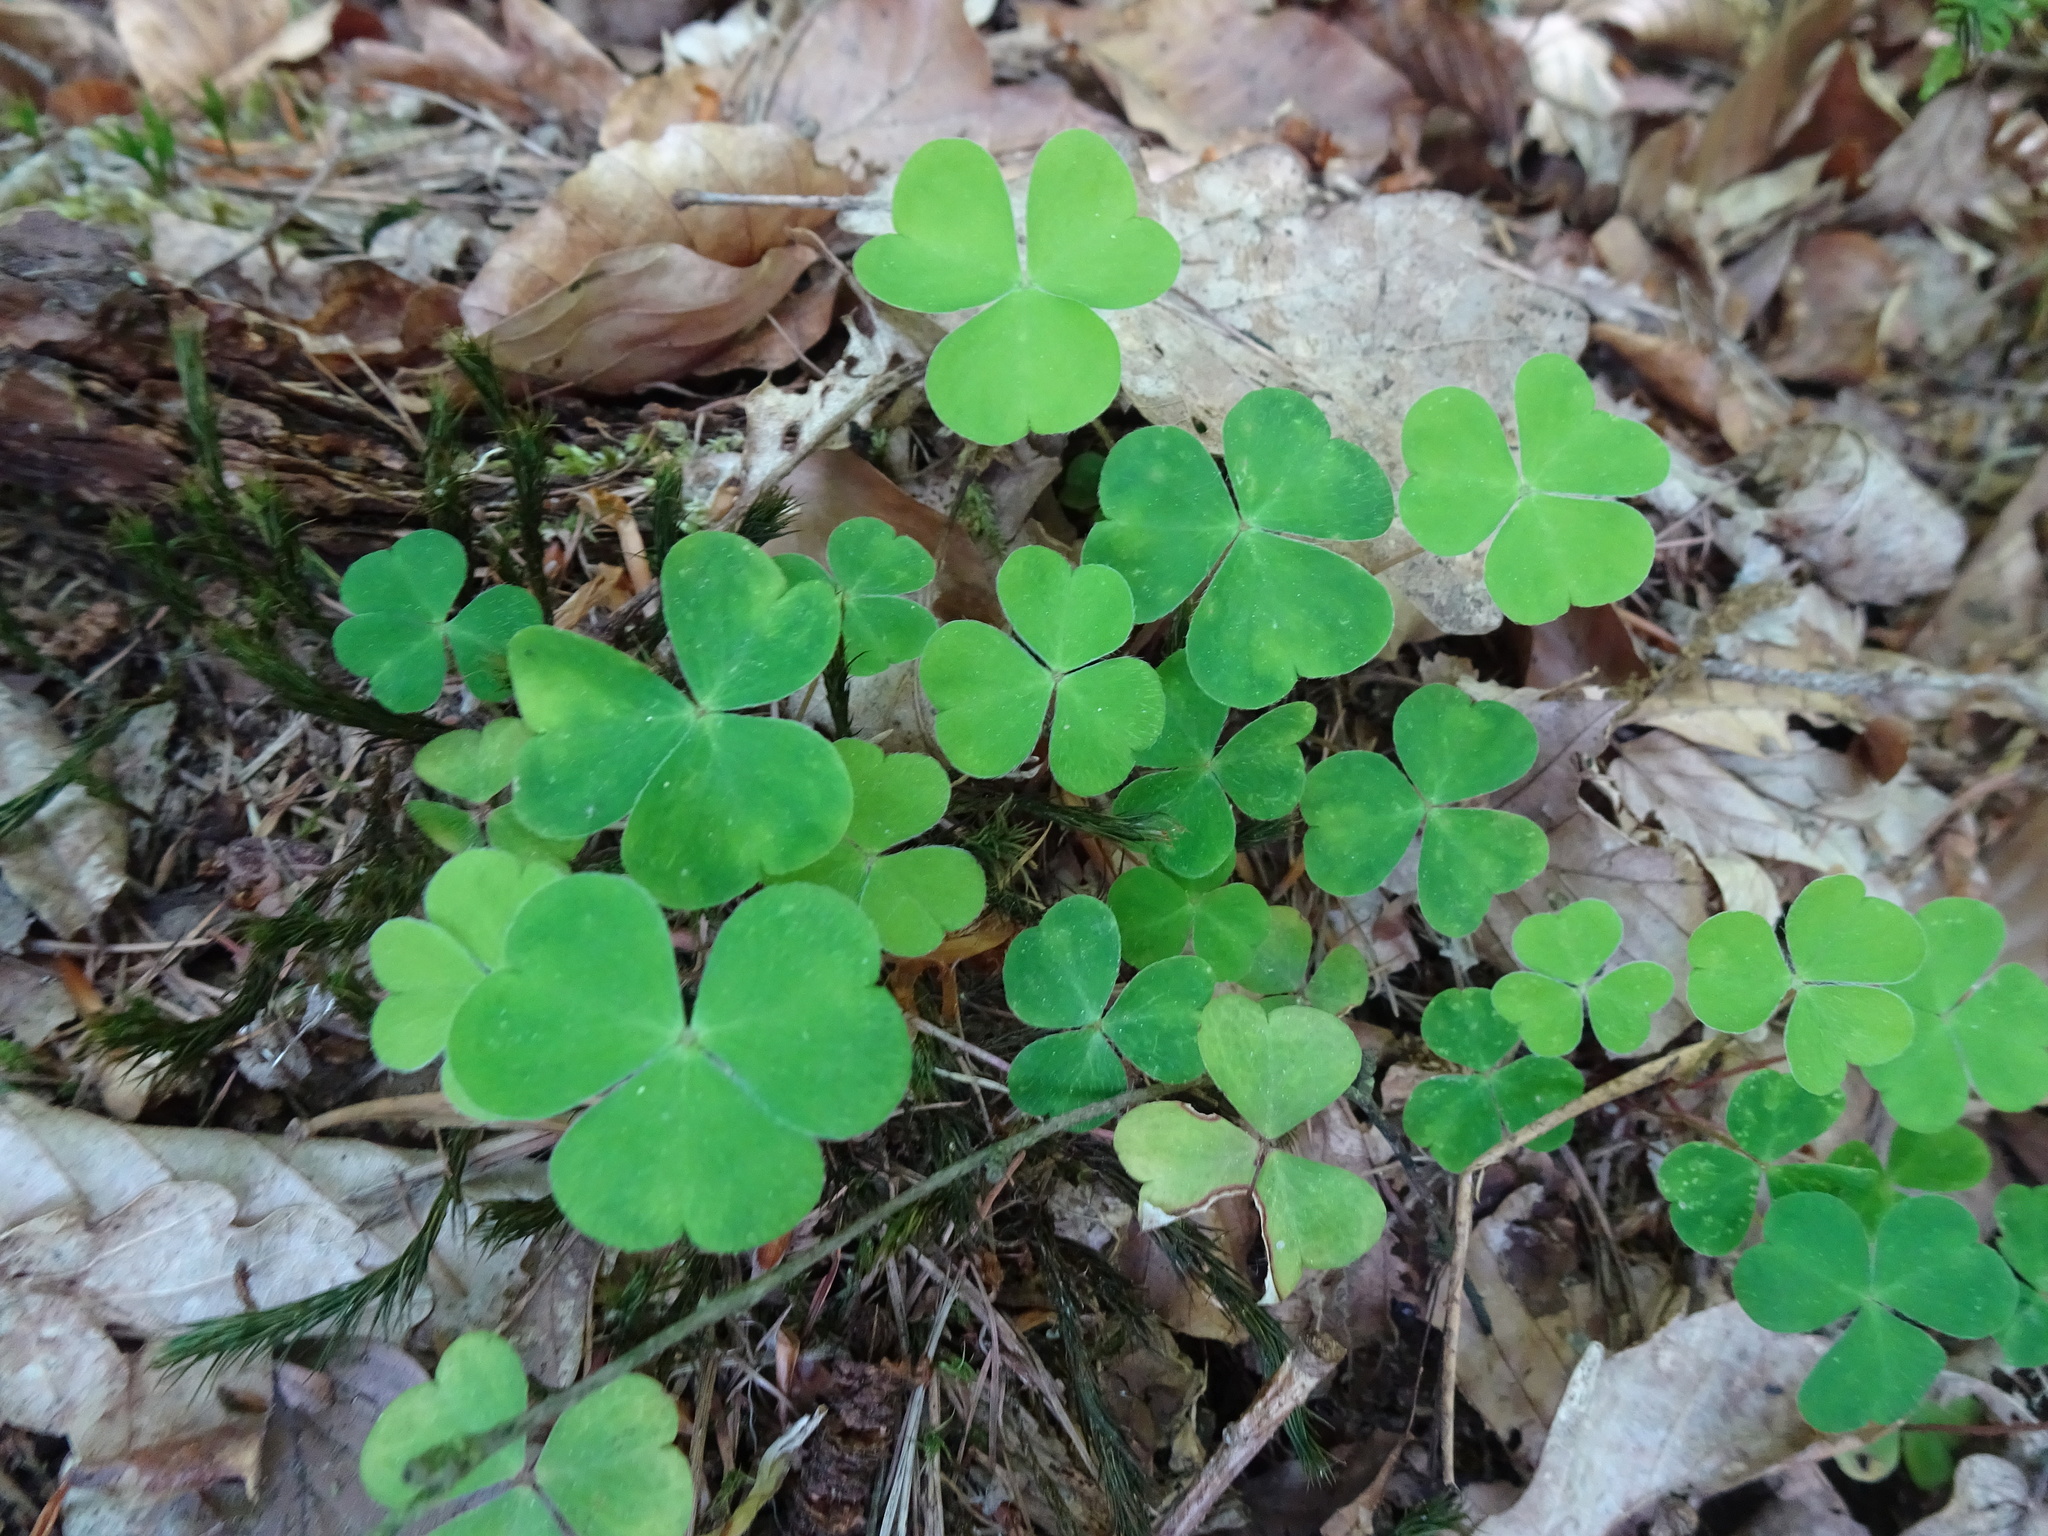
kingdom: Plantae
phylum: Tracheophyta
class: Magnoliopsida
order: Oxalidales
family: Oxalidaceae
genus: Oxalis
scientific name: Oxalis acetosella
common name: Wood-sorrel
